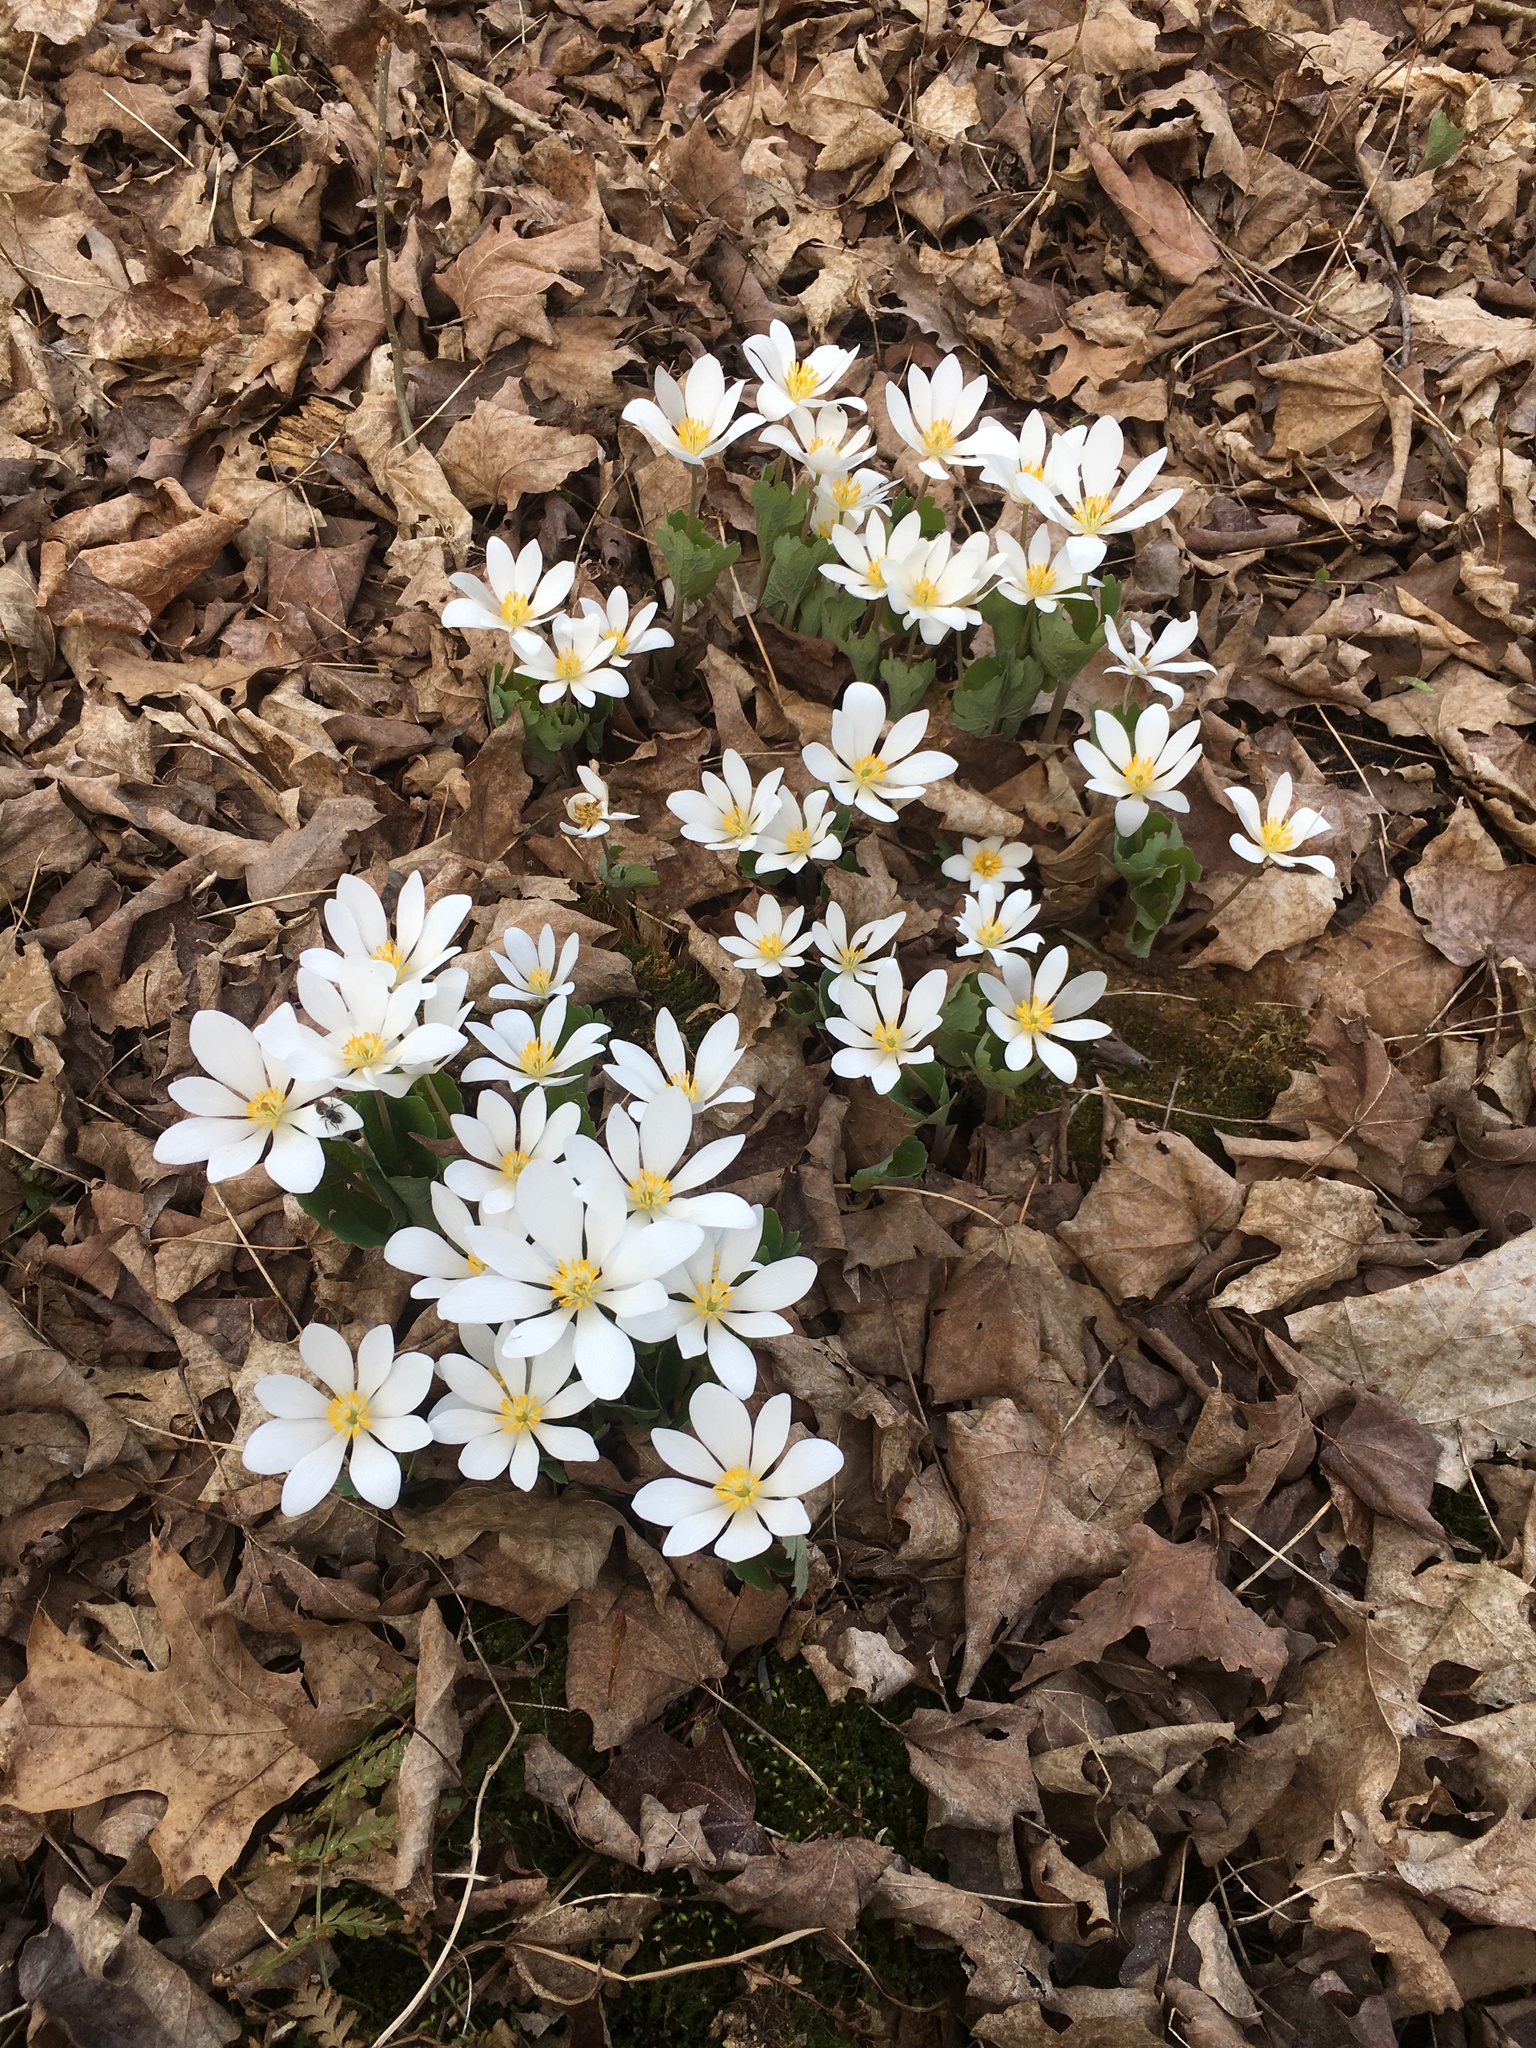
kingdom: Plantae
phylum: Tracheophyta
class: Magnoliopsida
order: Ranunculales
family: Papaveraceae
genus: Sanguinaria
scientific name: Sanguinaria canadensis
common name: Bloodroot
